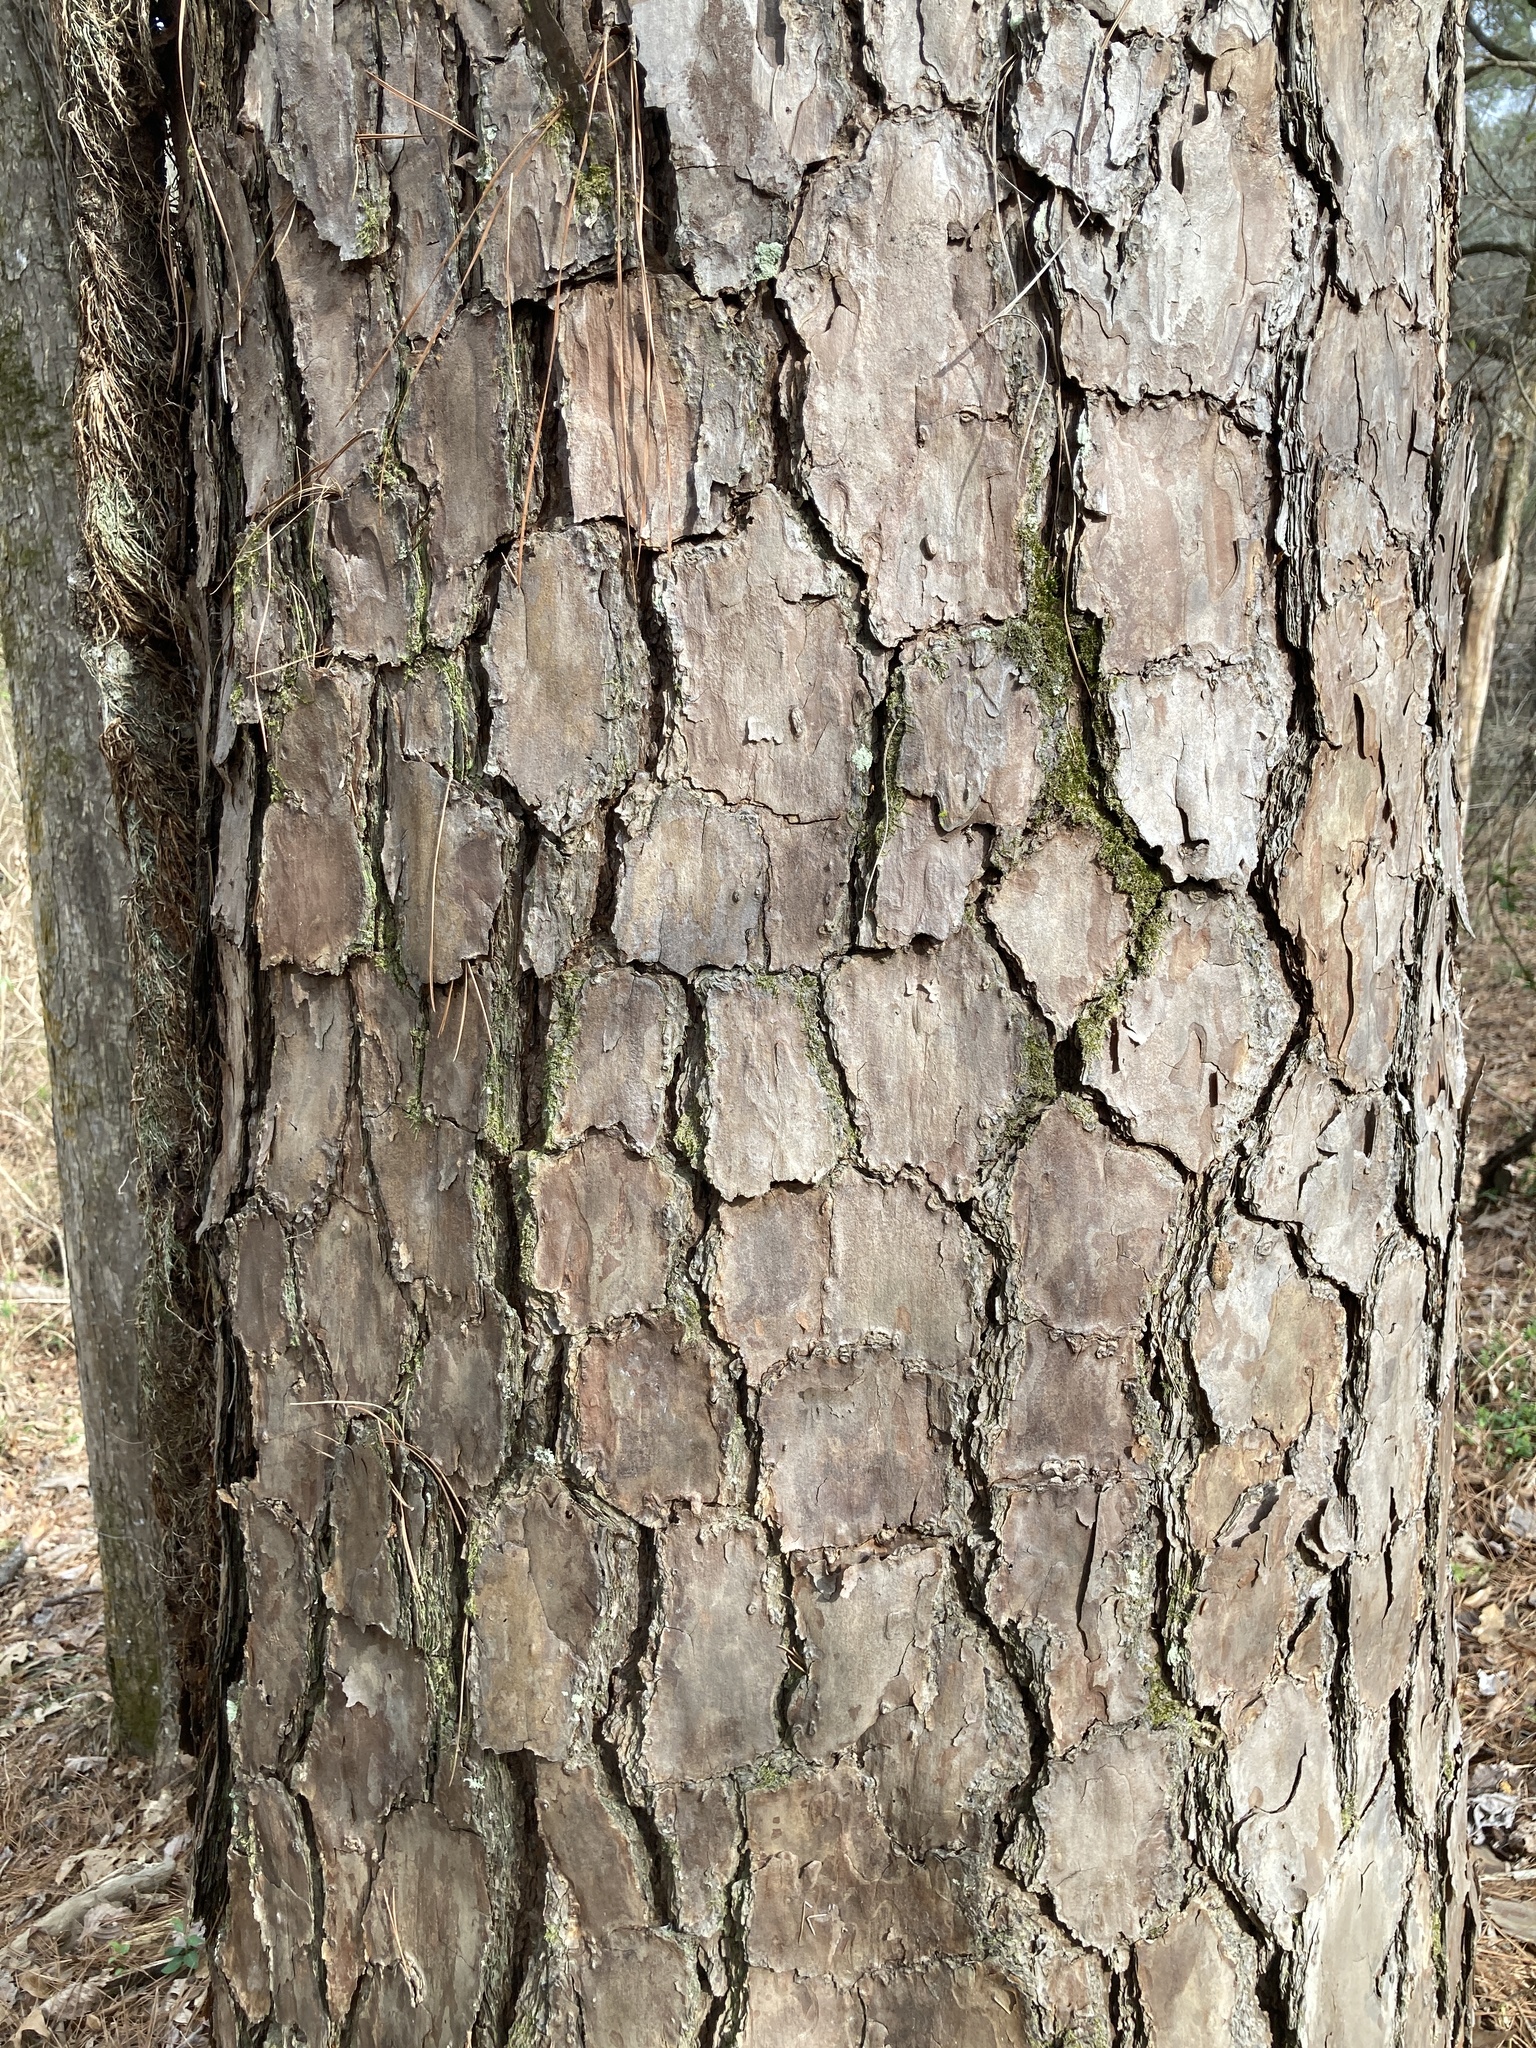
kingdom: Plantae
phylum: Tracheophyta
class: Pinopsida
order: Pinales
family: Pinaceae
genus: Pinus
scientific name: Pinus echinata
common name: Shortleaf pine
